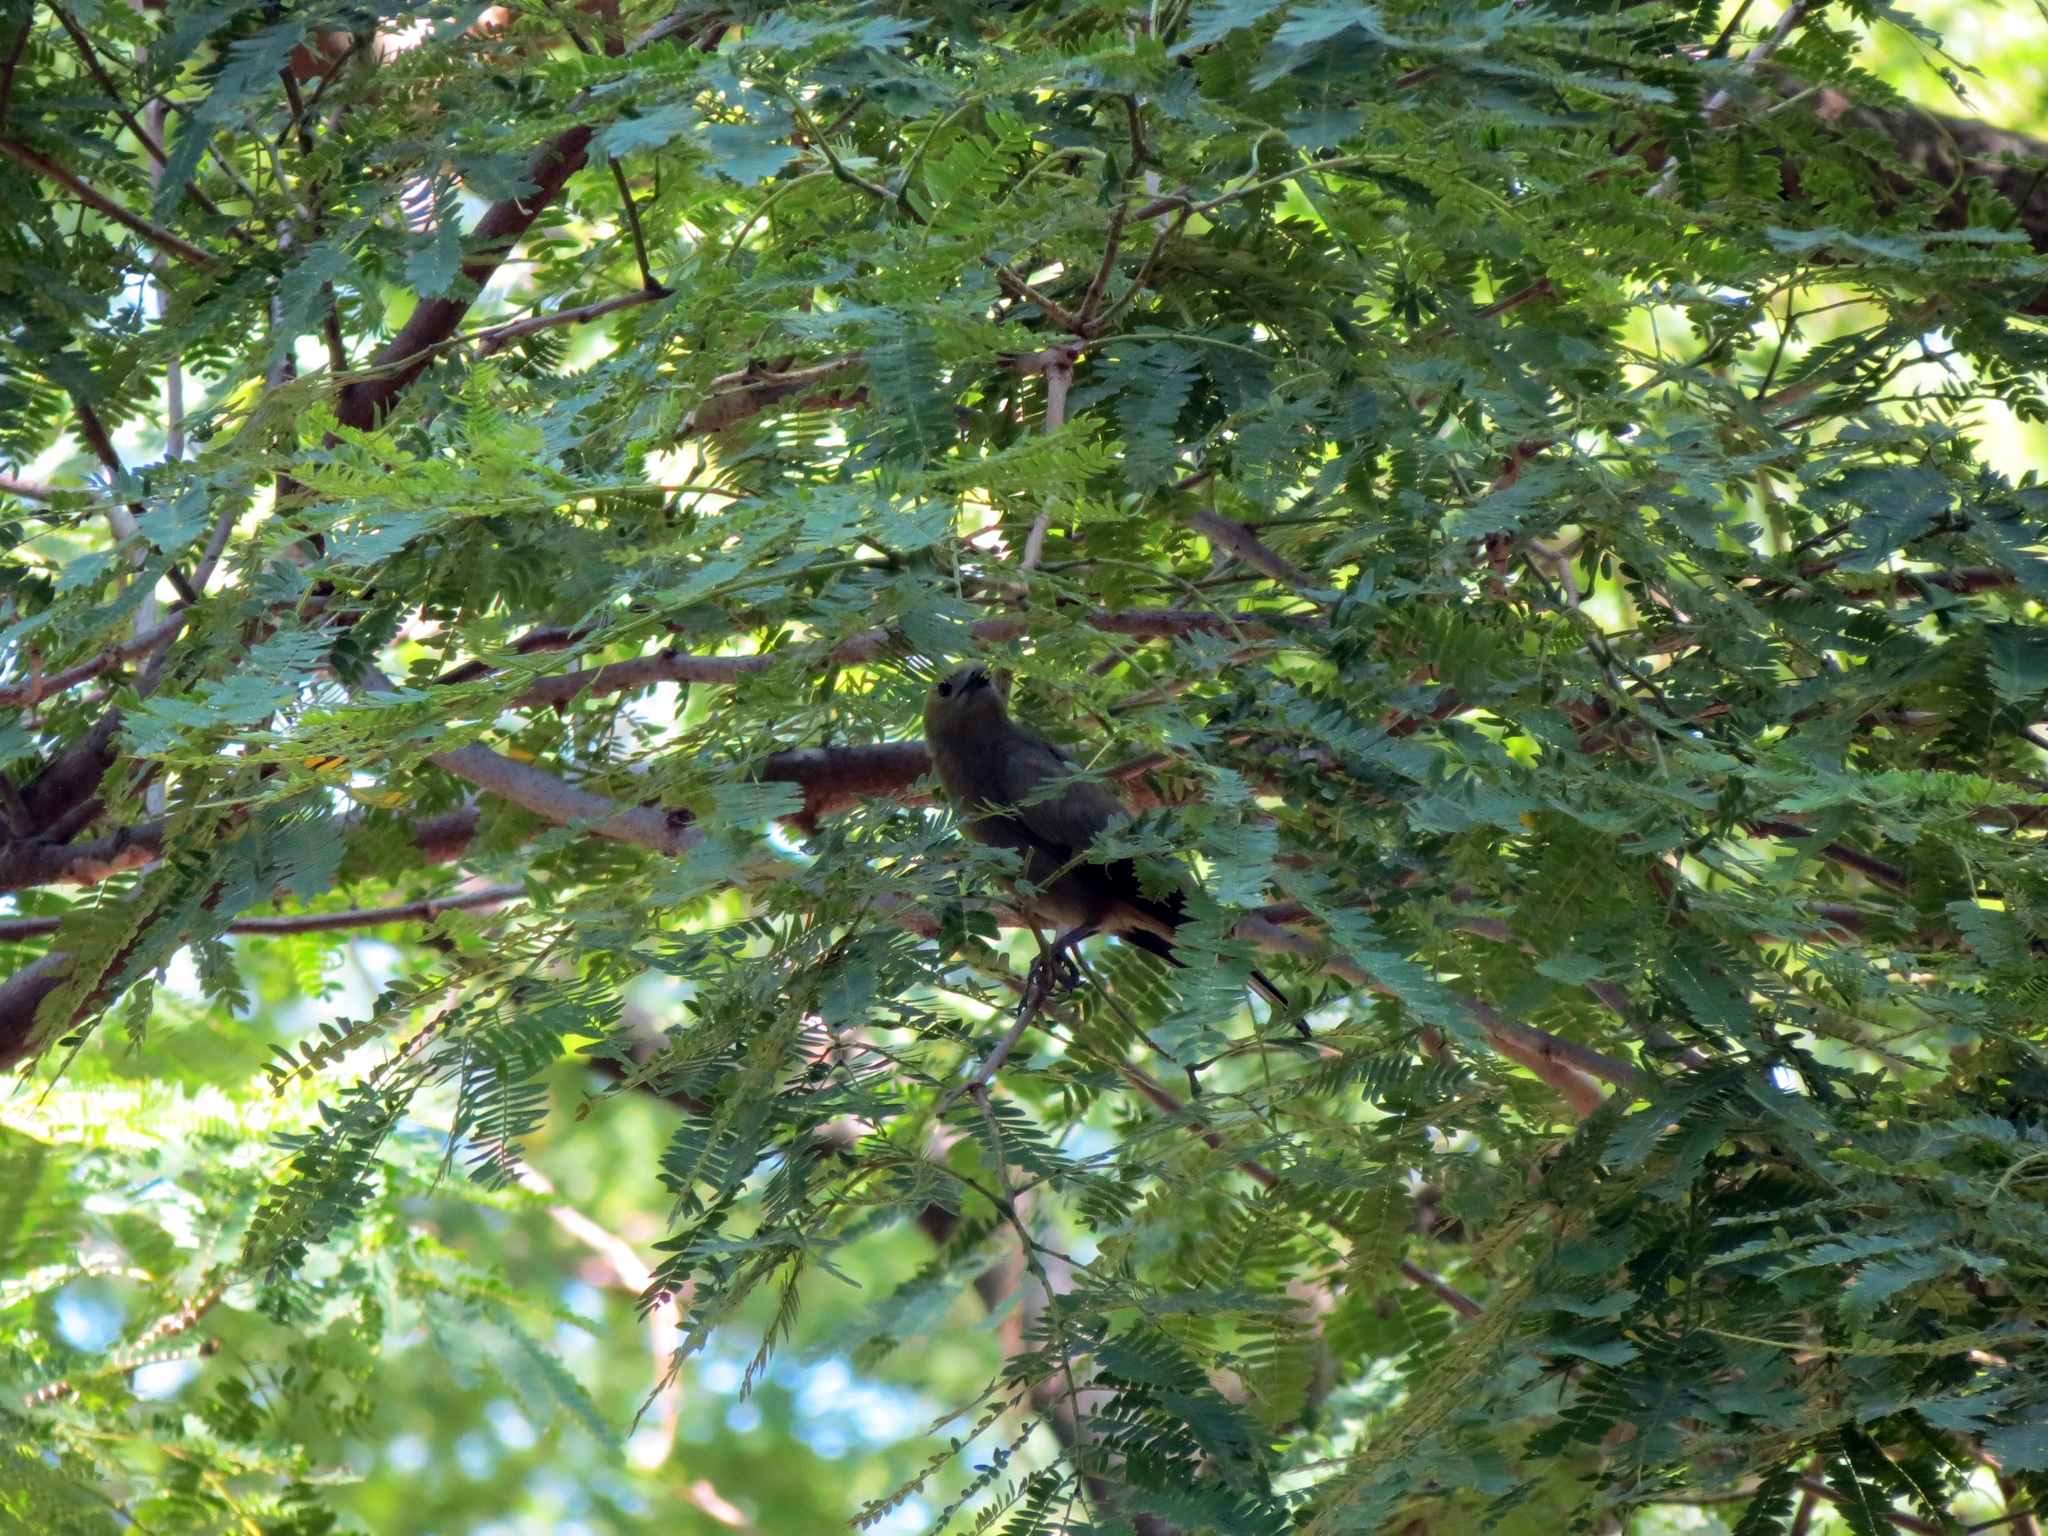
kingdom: Animalia
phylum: Chordata
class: Aves
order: Passeriformes
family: Thraupidae
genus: Thraupis
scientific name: Thraupis palmarum
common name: Palm tanager
